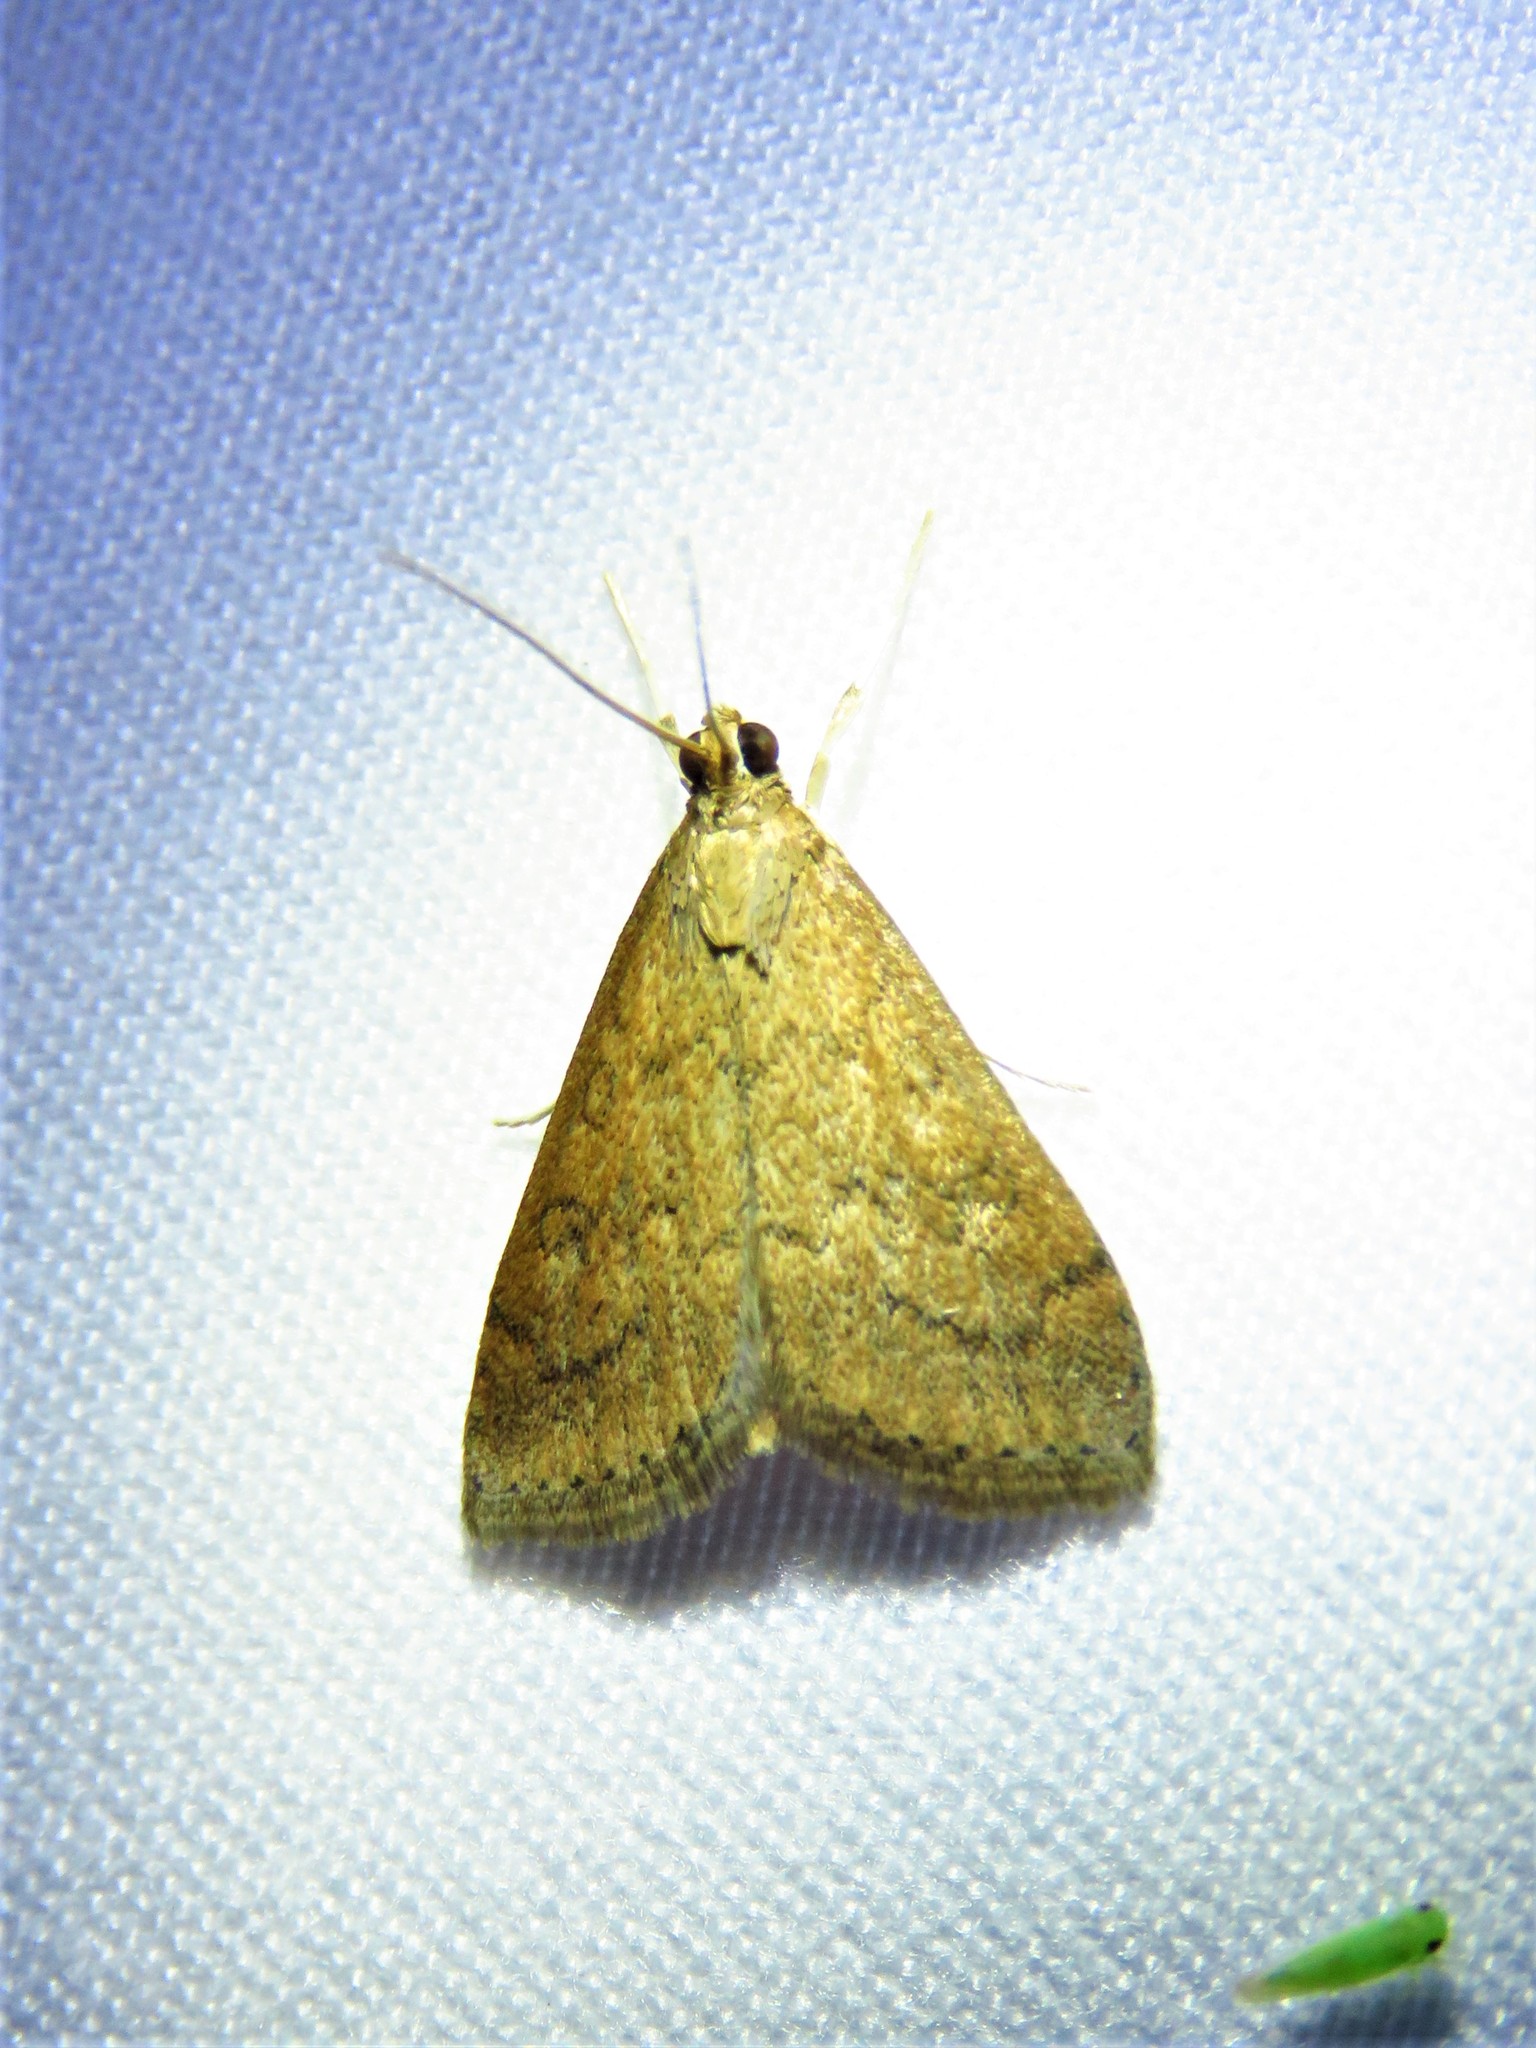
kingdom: Animalia
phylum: Arthropoda
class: Insecta
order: Lepidoptera
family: Crambidae
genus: Udea
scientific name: Udea rubigalis
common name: Celery leaftier moth
